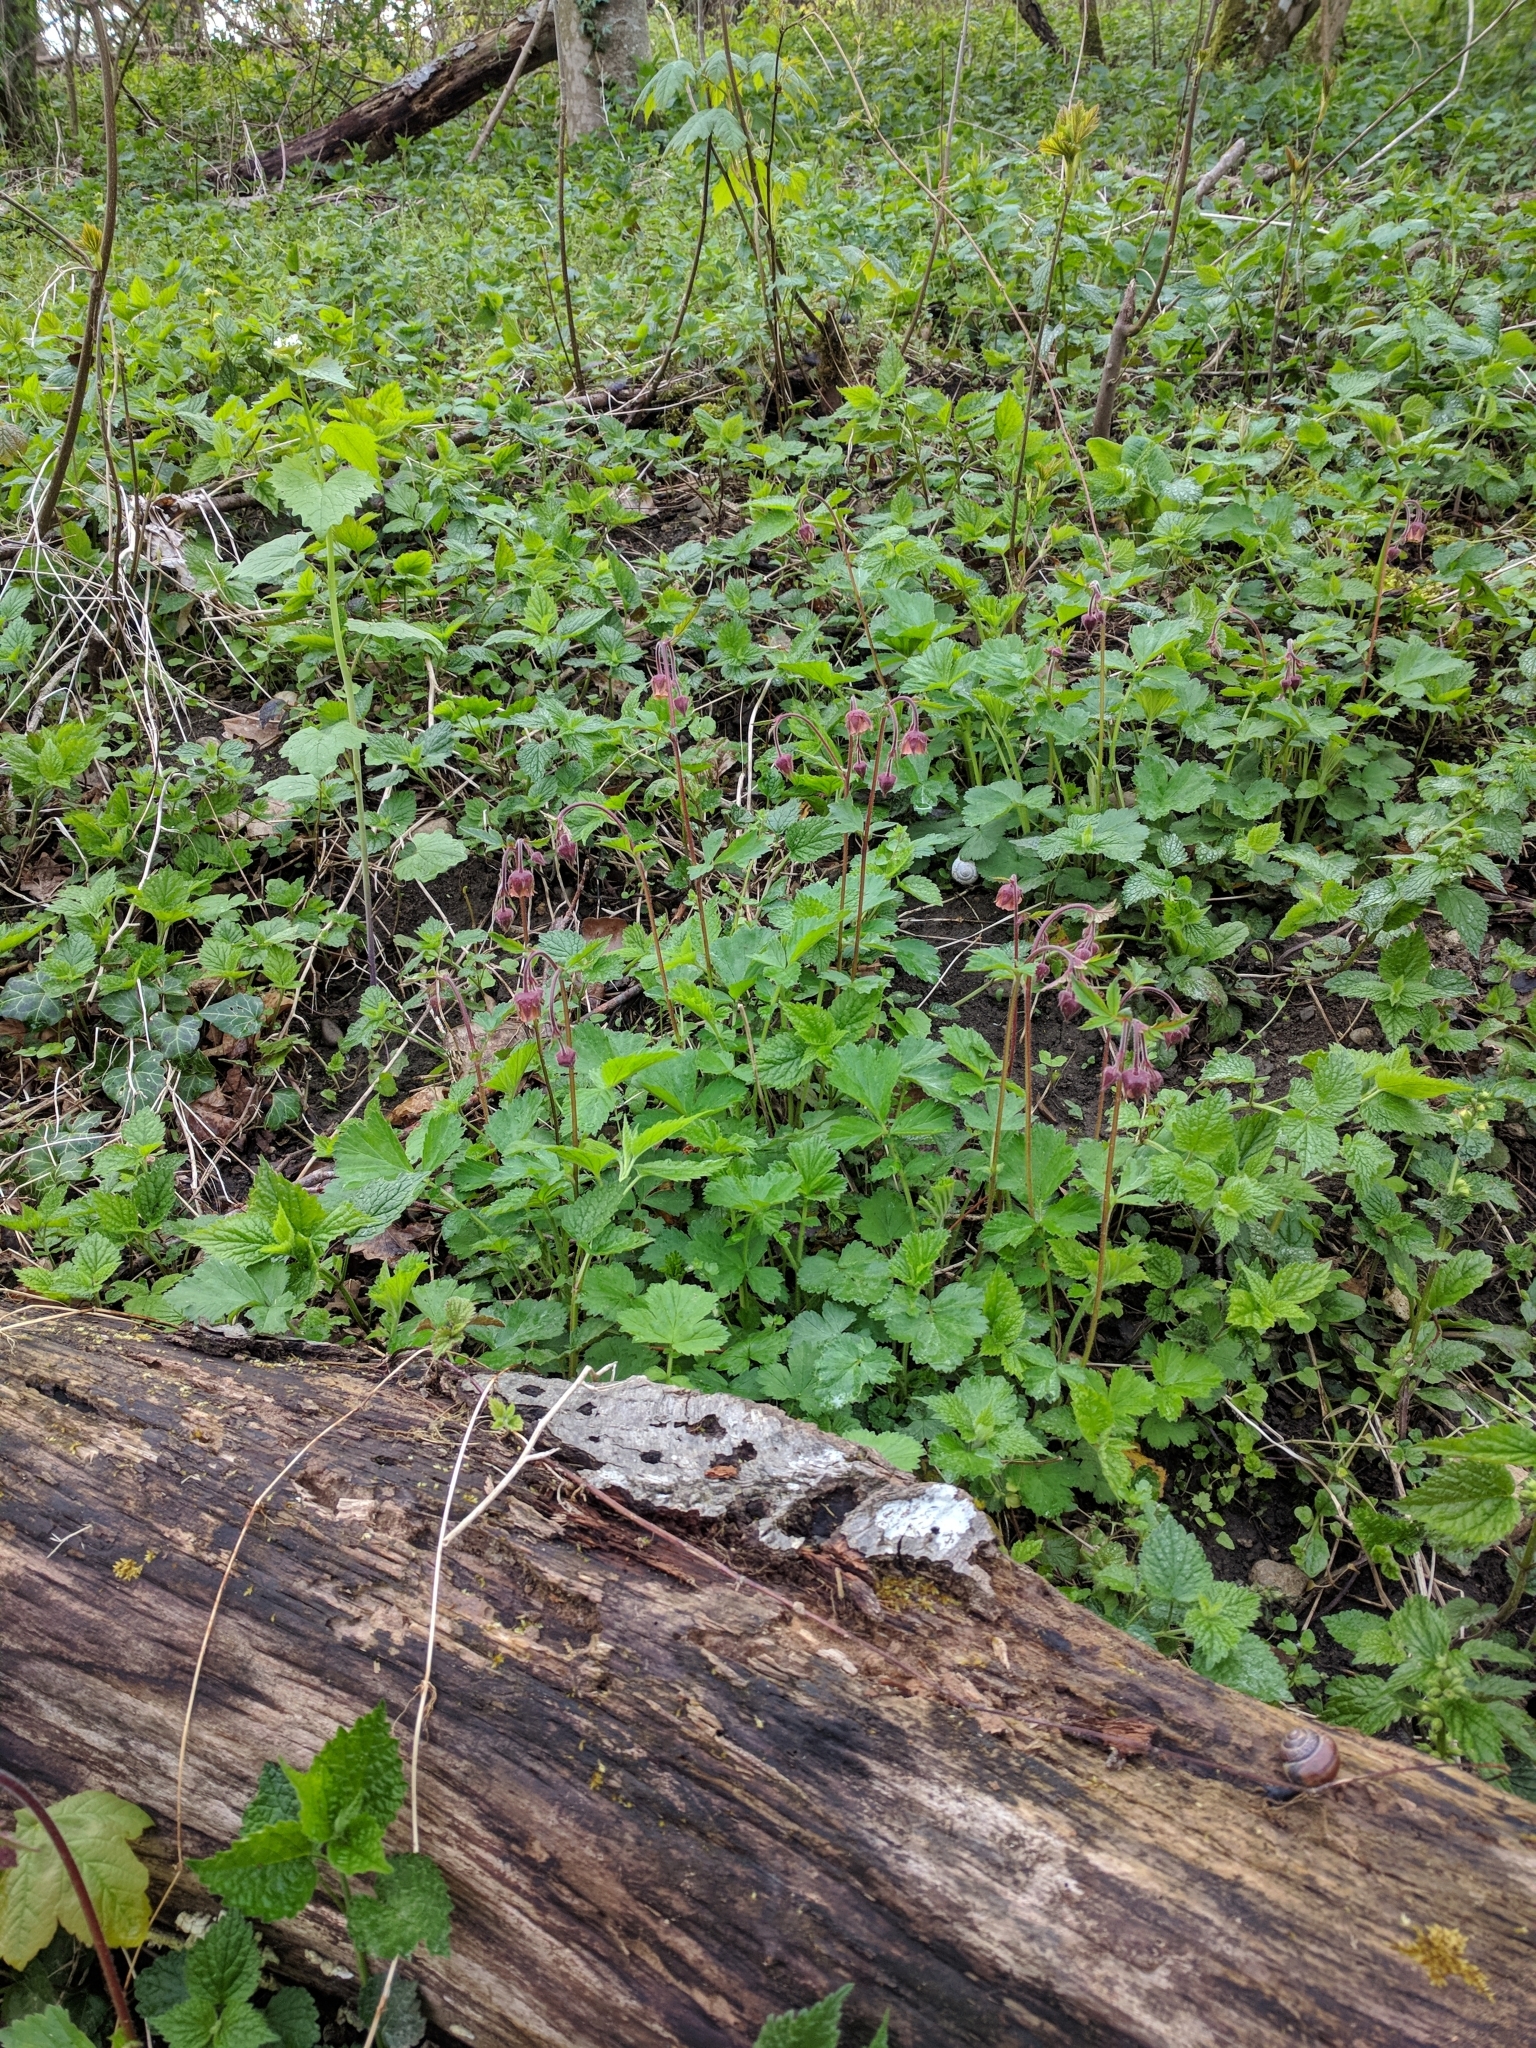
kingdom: Plantae
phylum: Tracheophyta
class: Magnoliopsida
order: Rosales
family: Rosaceae
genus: Geum
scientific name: Geum rivale
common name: Water avens
